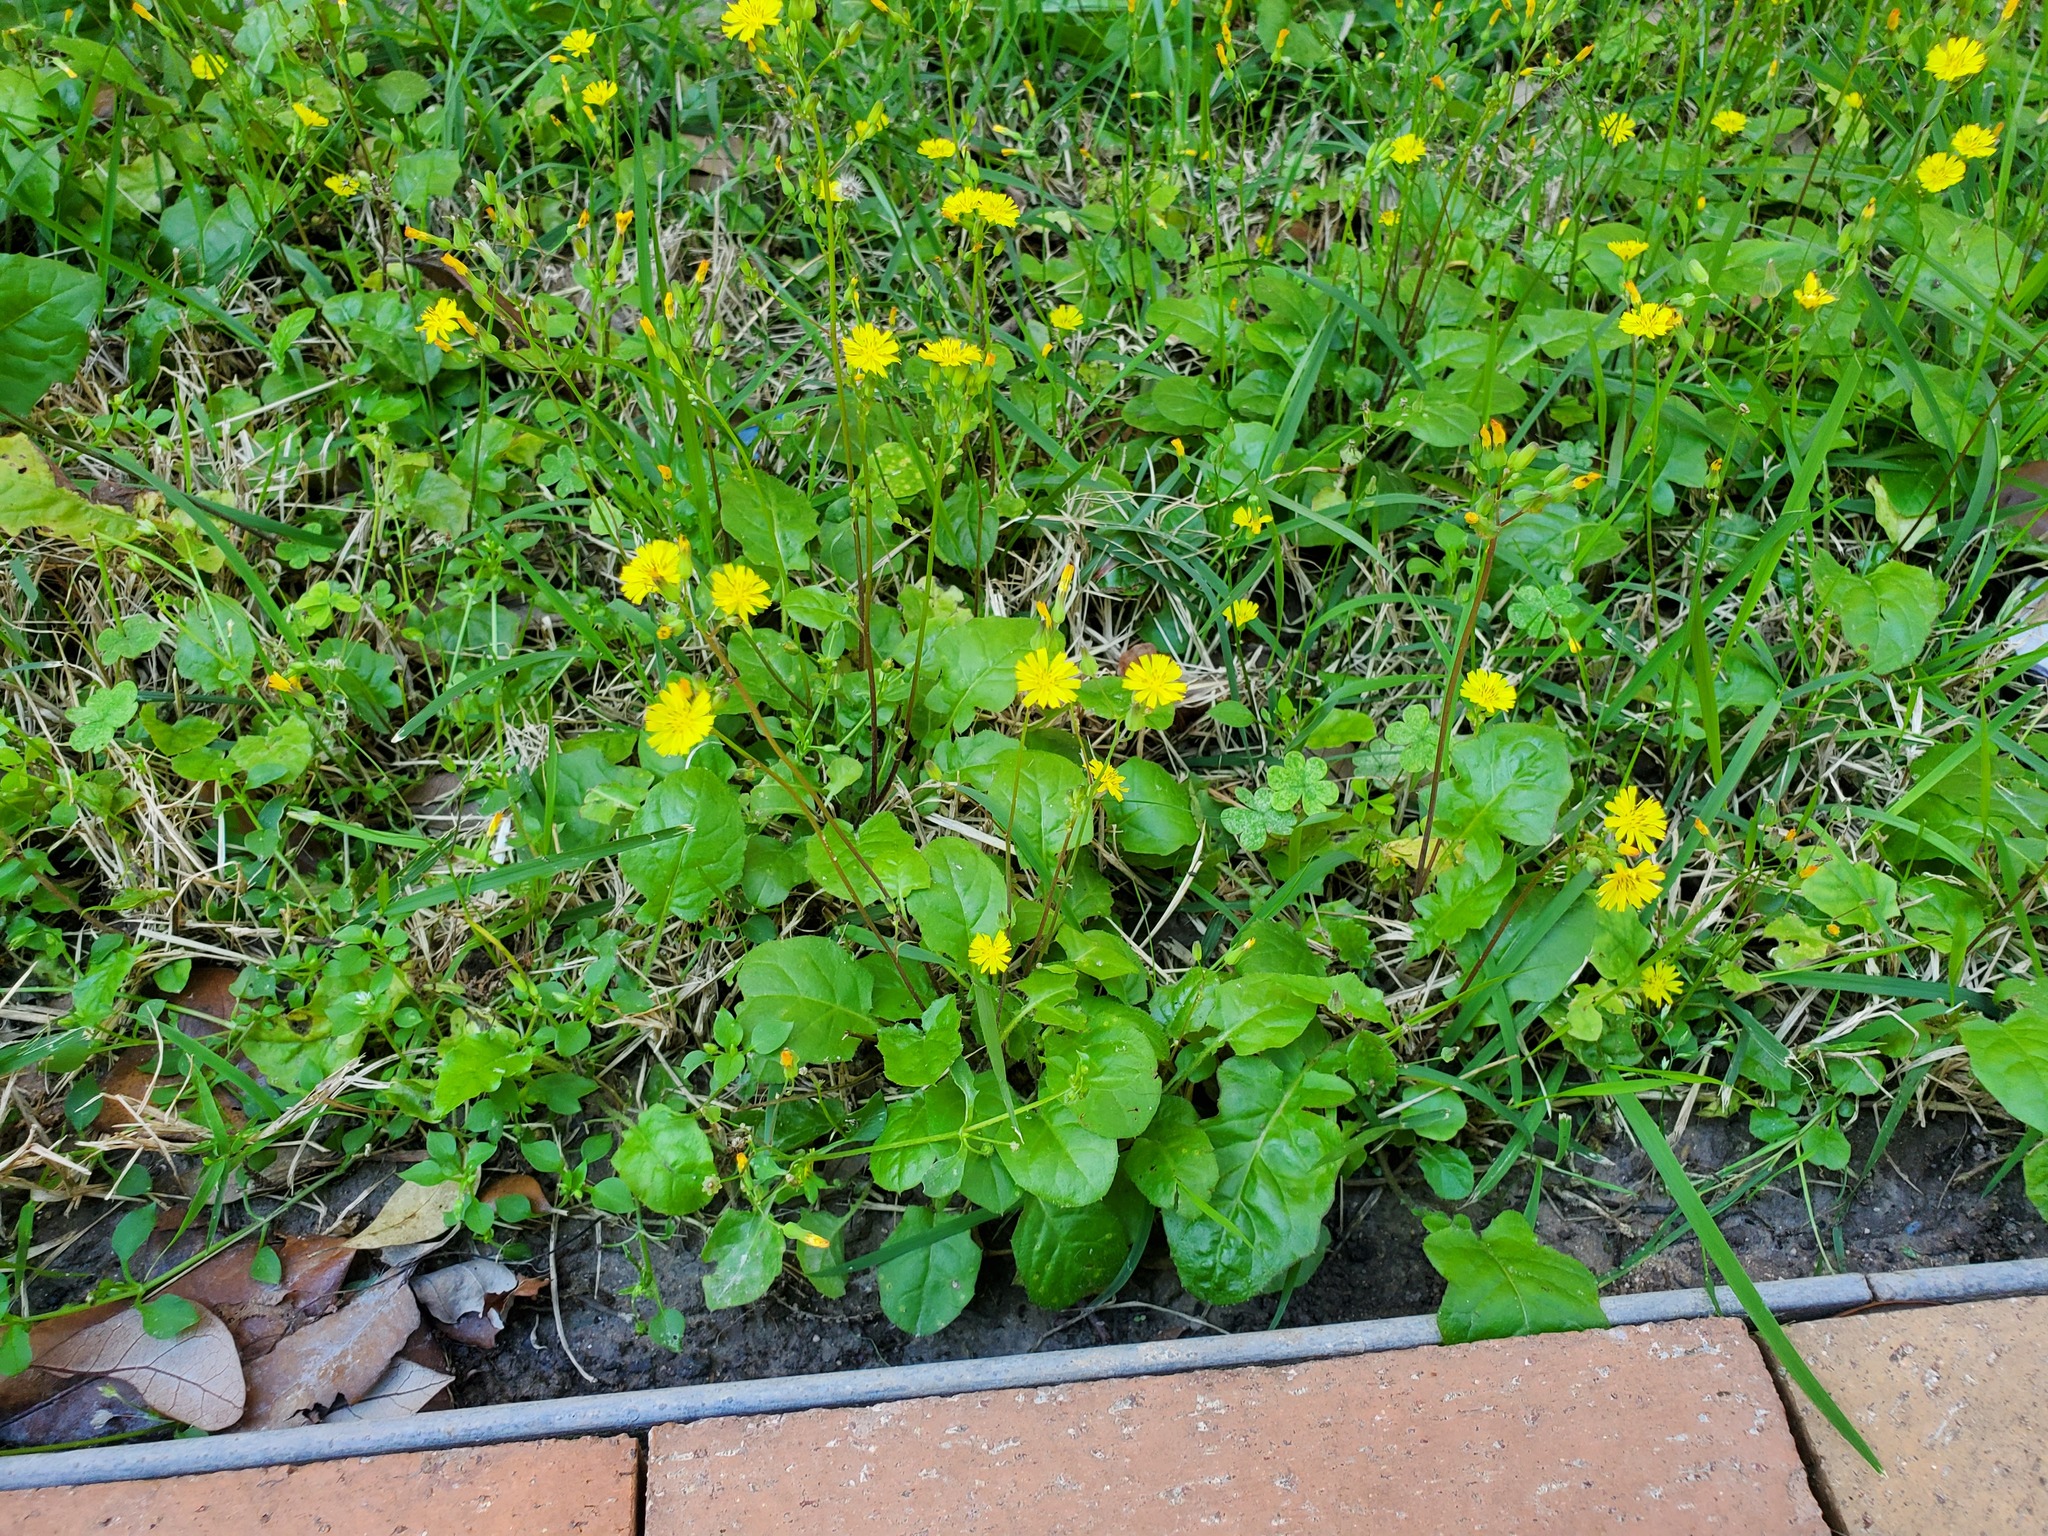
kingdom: Plantae
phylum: Tracheophyta
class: Magnoliopsida
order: Asterales
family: Asteraceae
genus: Youngia
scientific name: Youngia japonica
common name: Oriental false hawksbeard
